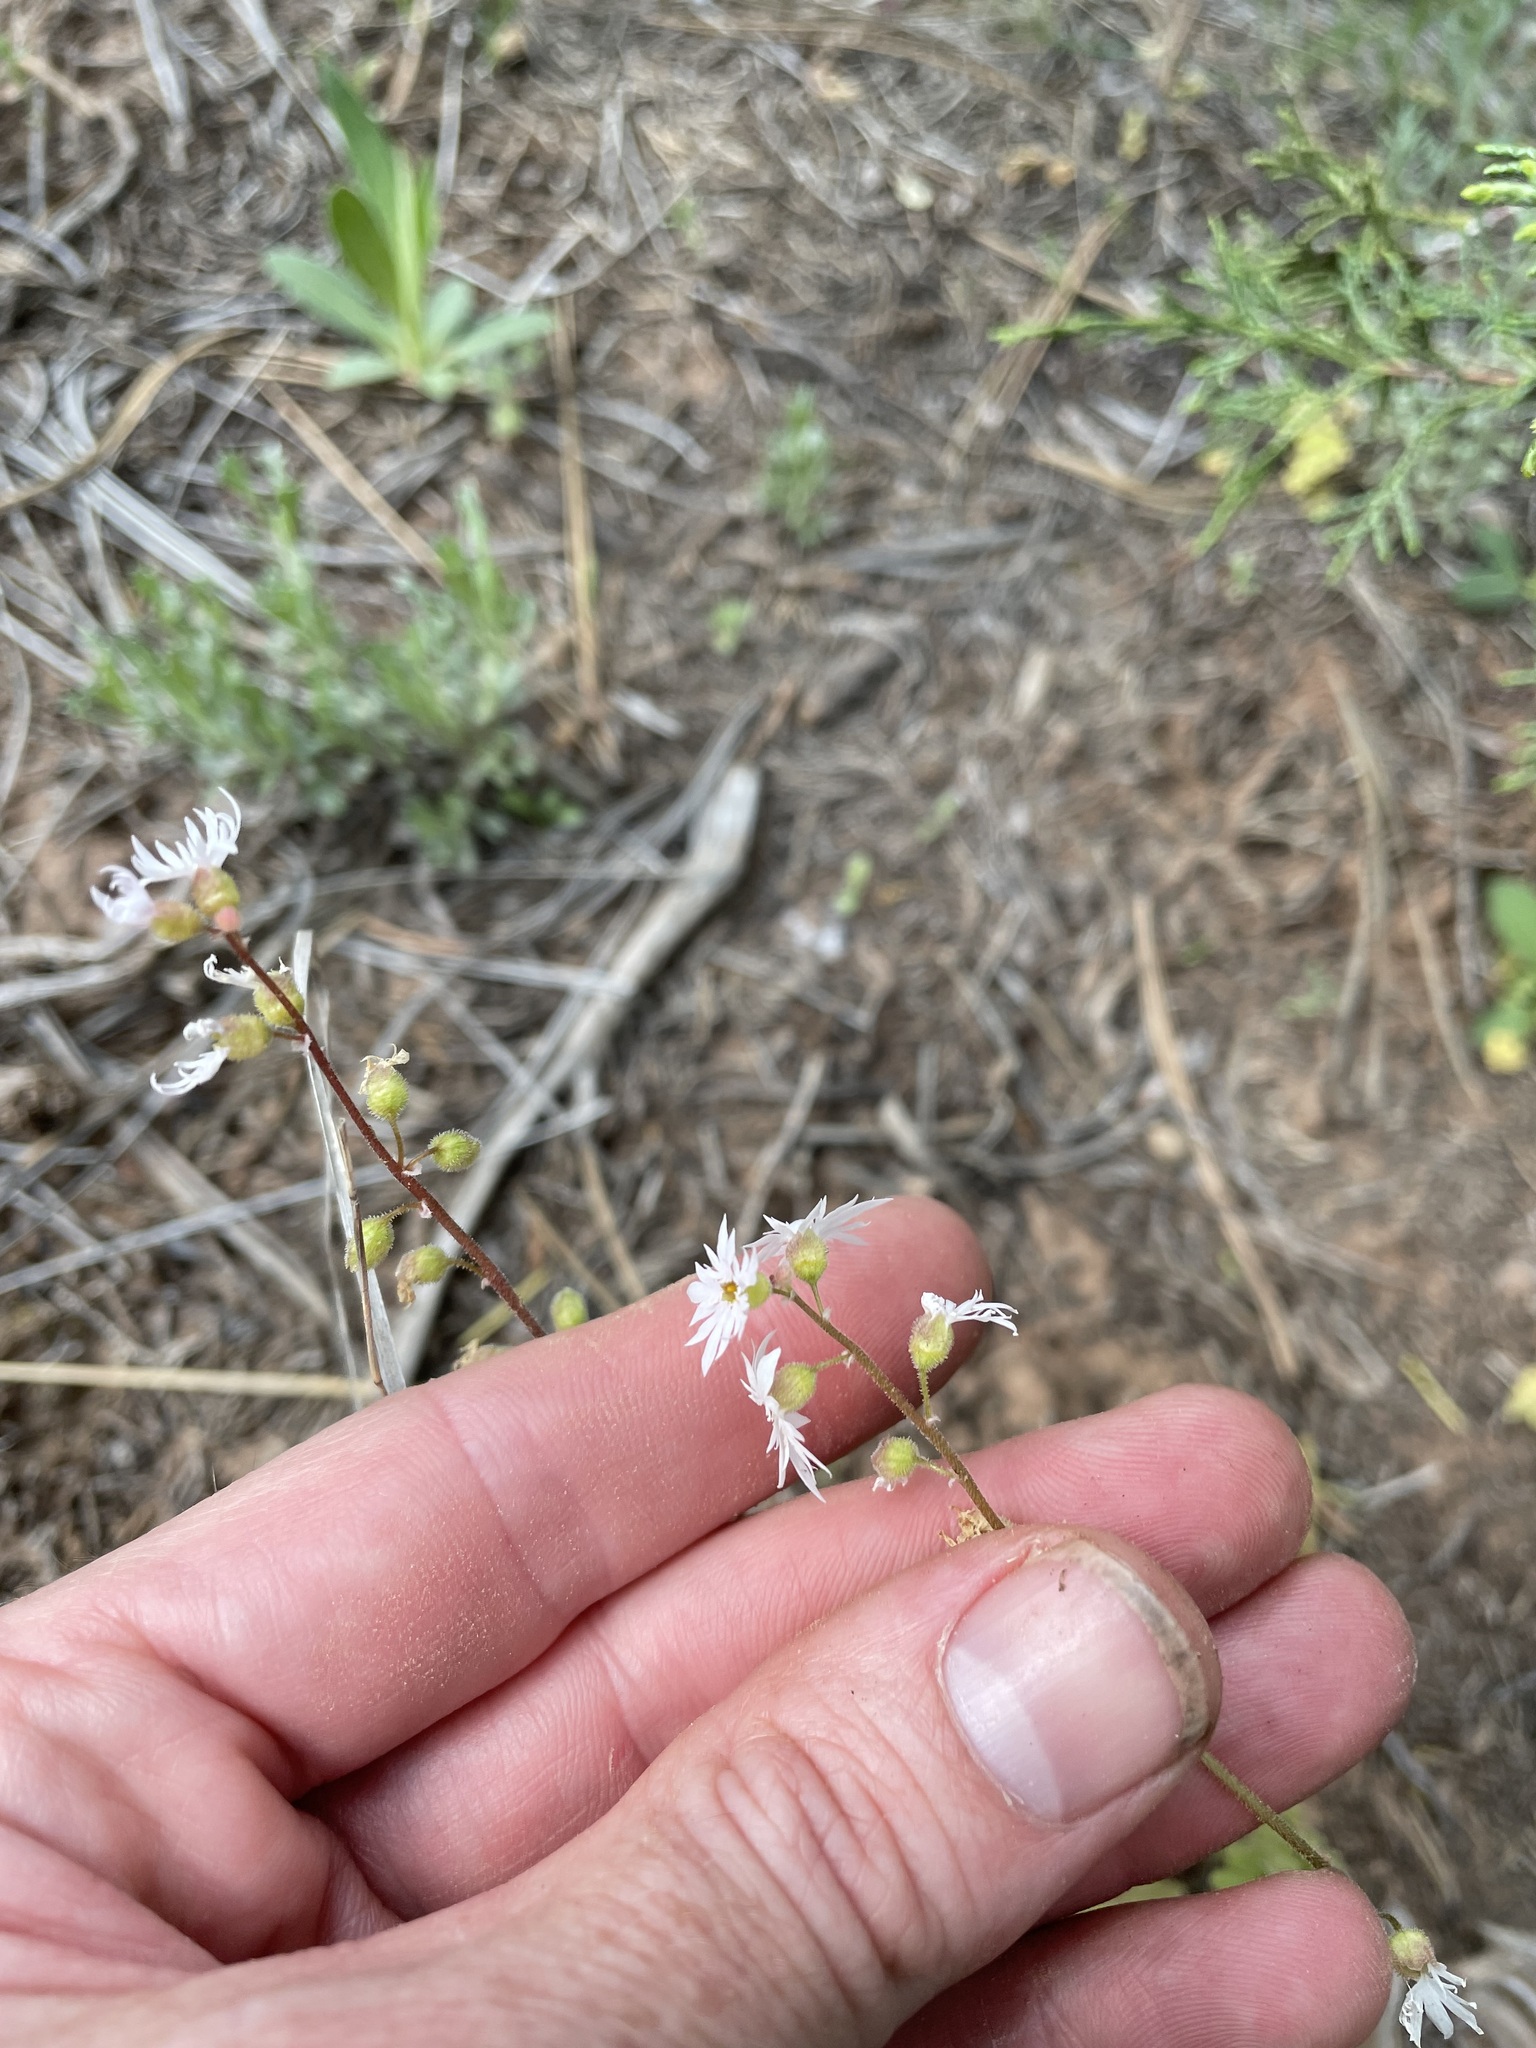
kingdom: Plantae
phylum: Tracheophyta
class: Magnoliopsida
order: Saxifragales
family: Saxifragaceae
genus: Lithophragma
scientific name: Lithophragma tenella
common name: Slender fringe-cup
